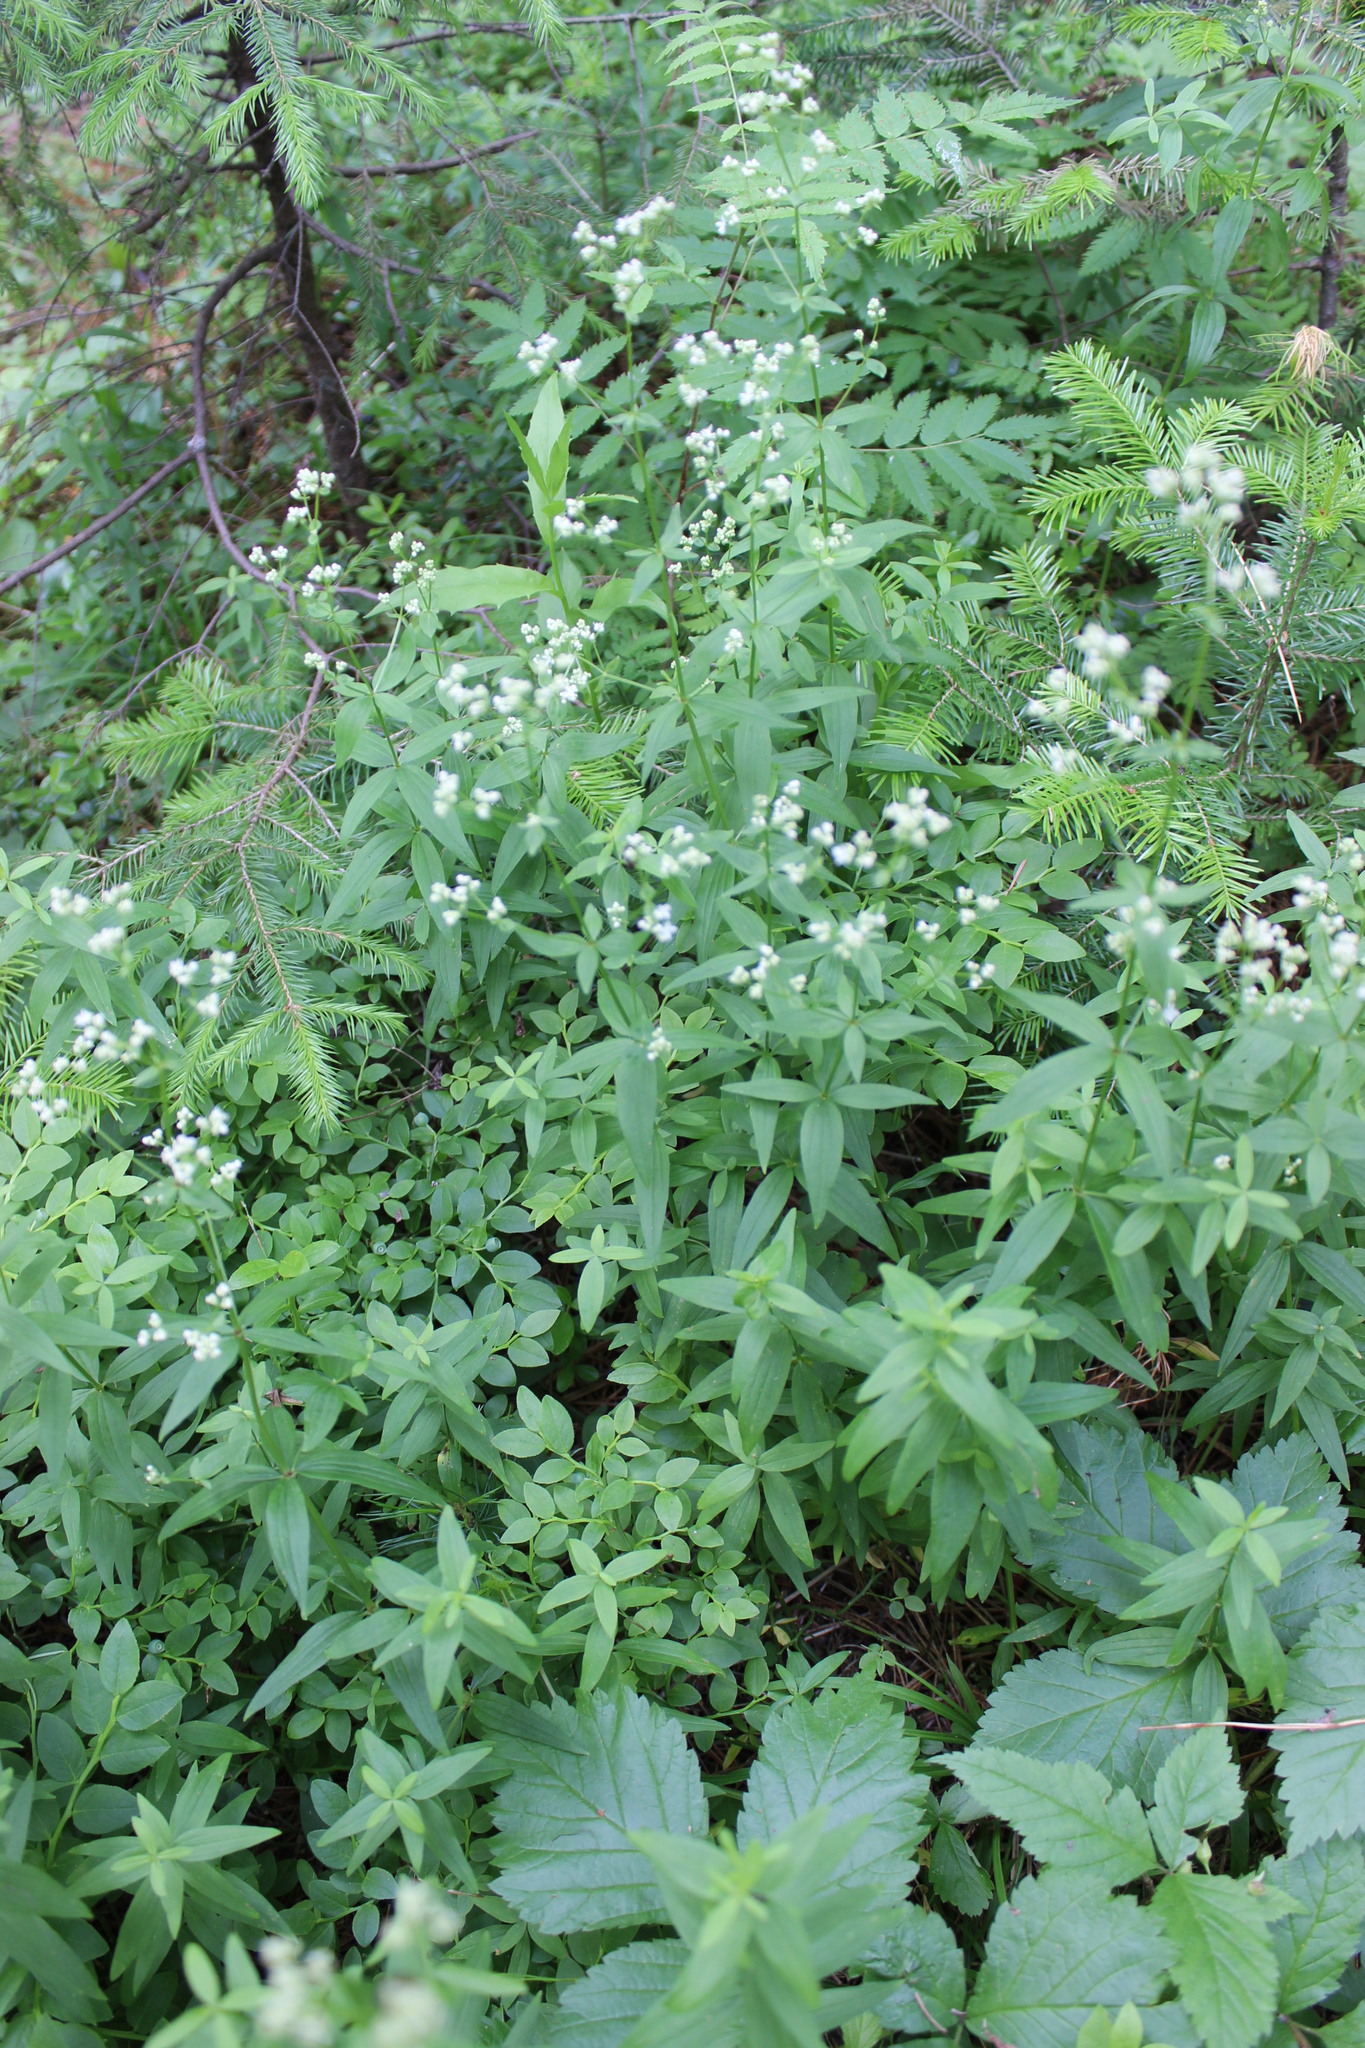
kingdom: Plantae
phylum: Tracheophyta
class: Magnoliopsida
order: Gentianales
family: Rubiaceae
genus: Galium
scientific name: Galium boreale
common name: Northern bedstraw
